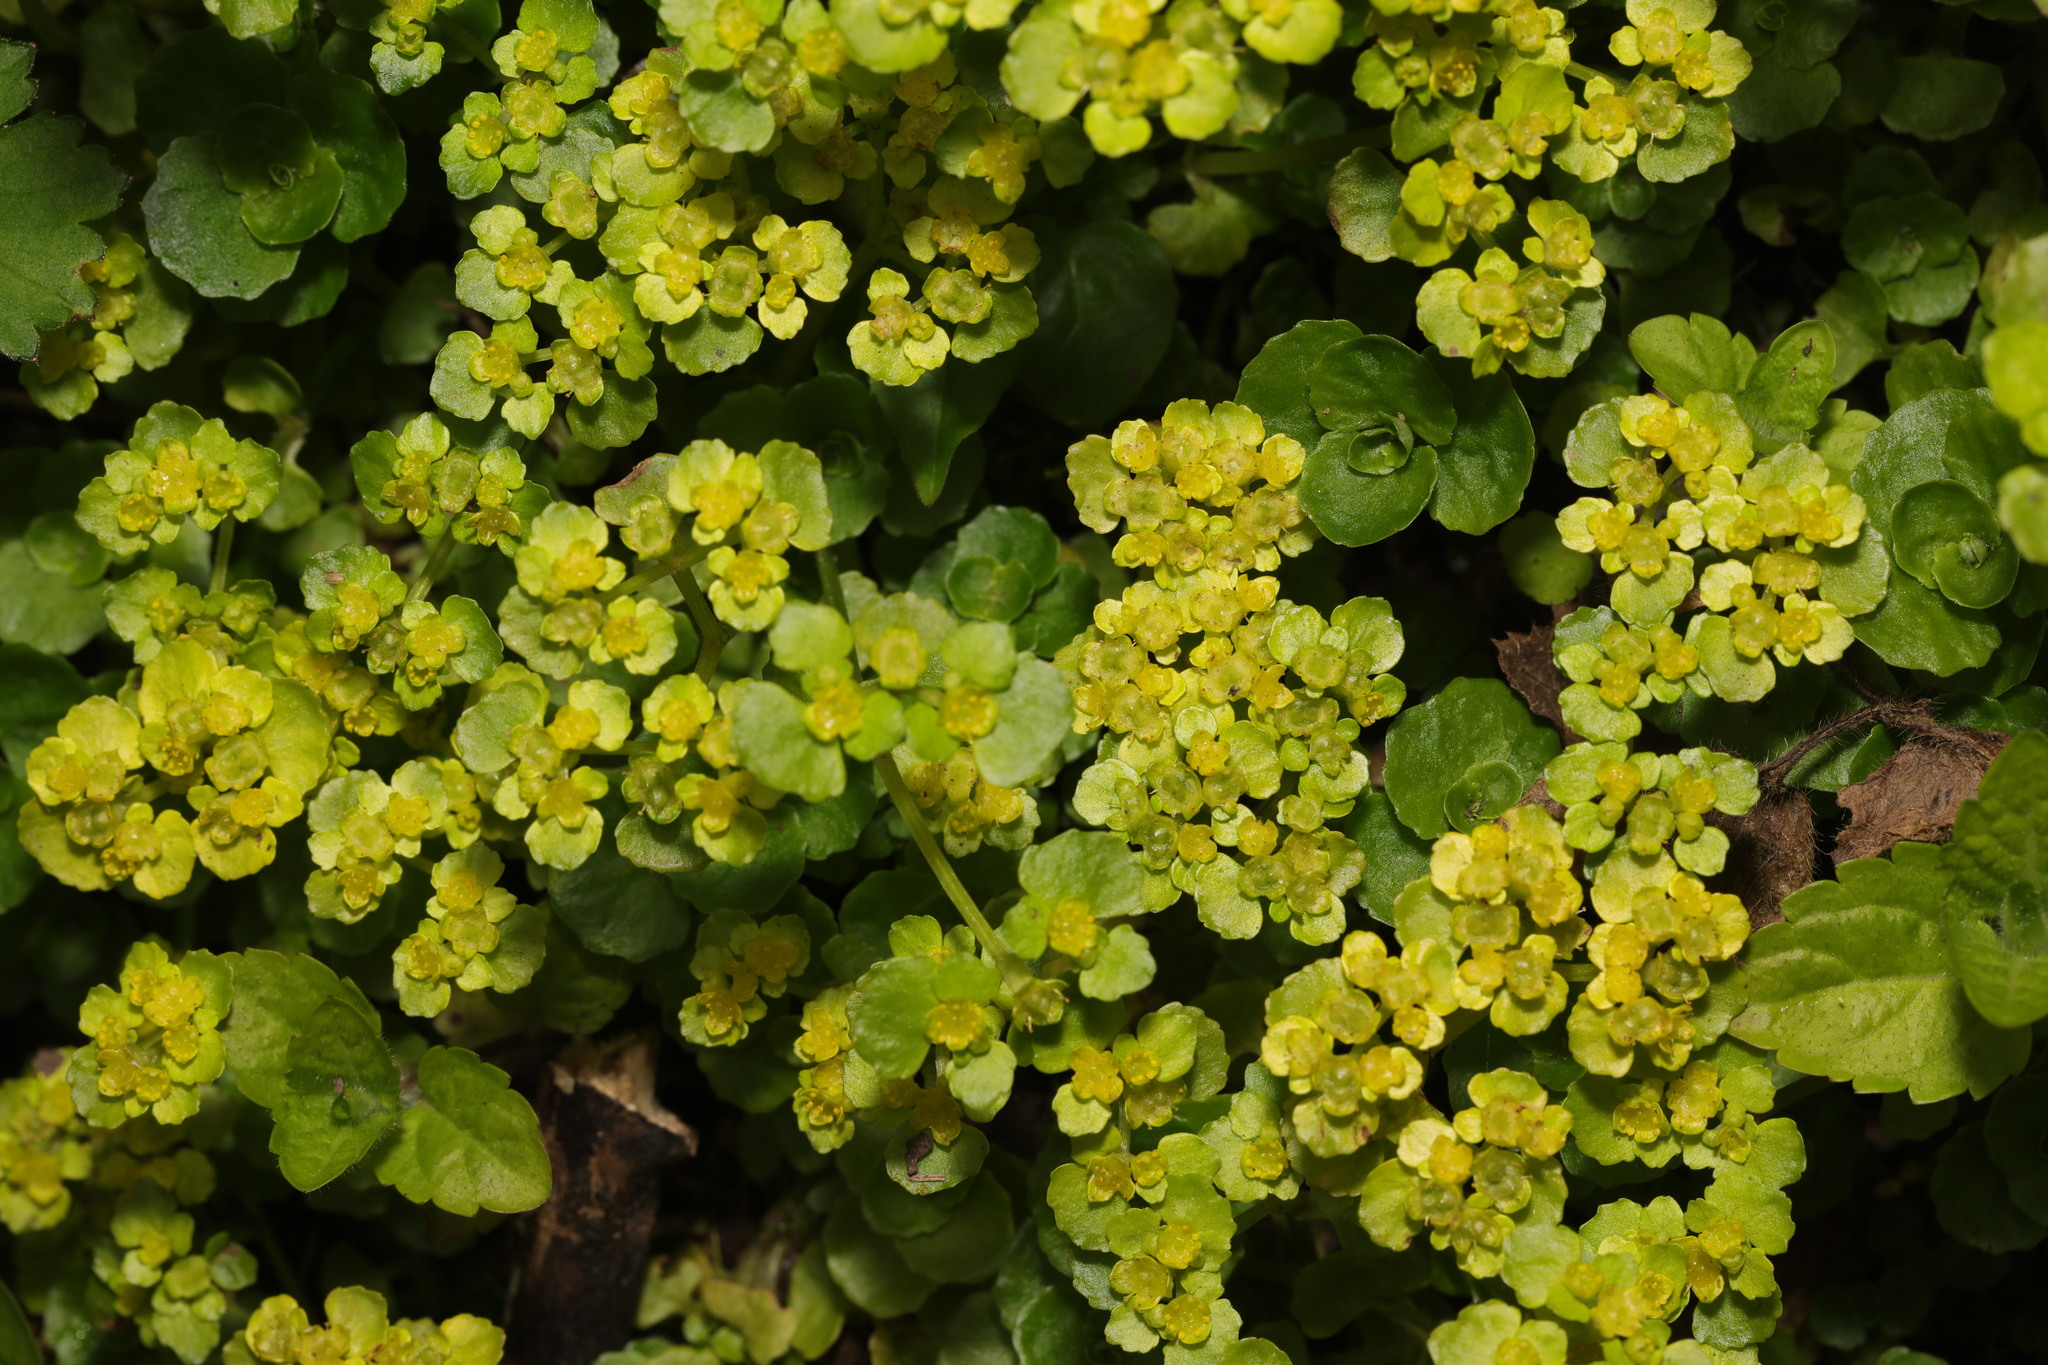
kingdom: Plantae
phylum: Tracheophyta
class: Magnoliopsida
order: Saxifragales
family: Saxifragaceae
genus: Chrysosplenium
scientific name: Chrysosplenium oppositifolium
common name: Opposite-leaved golden-saxifrage
